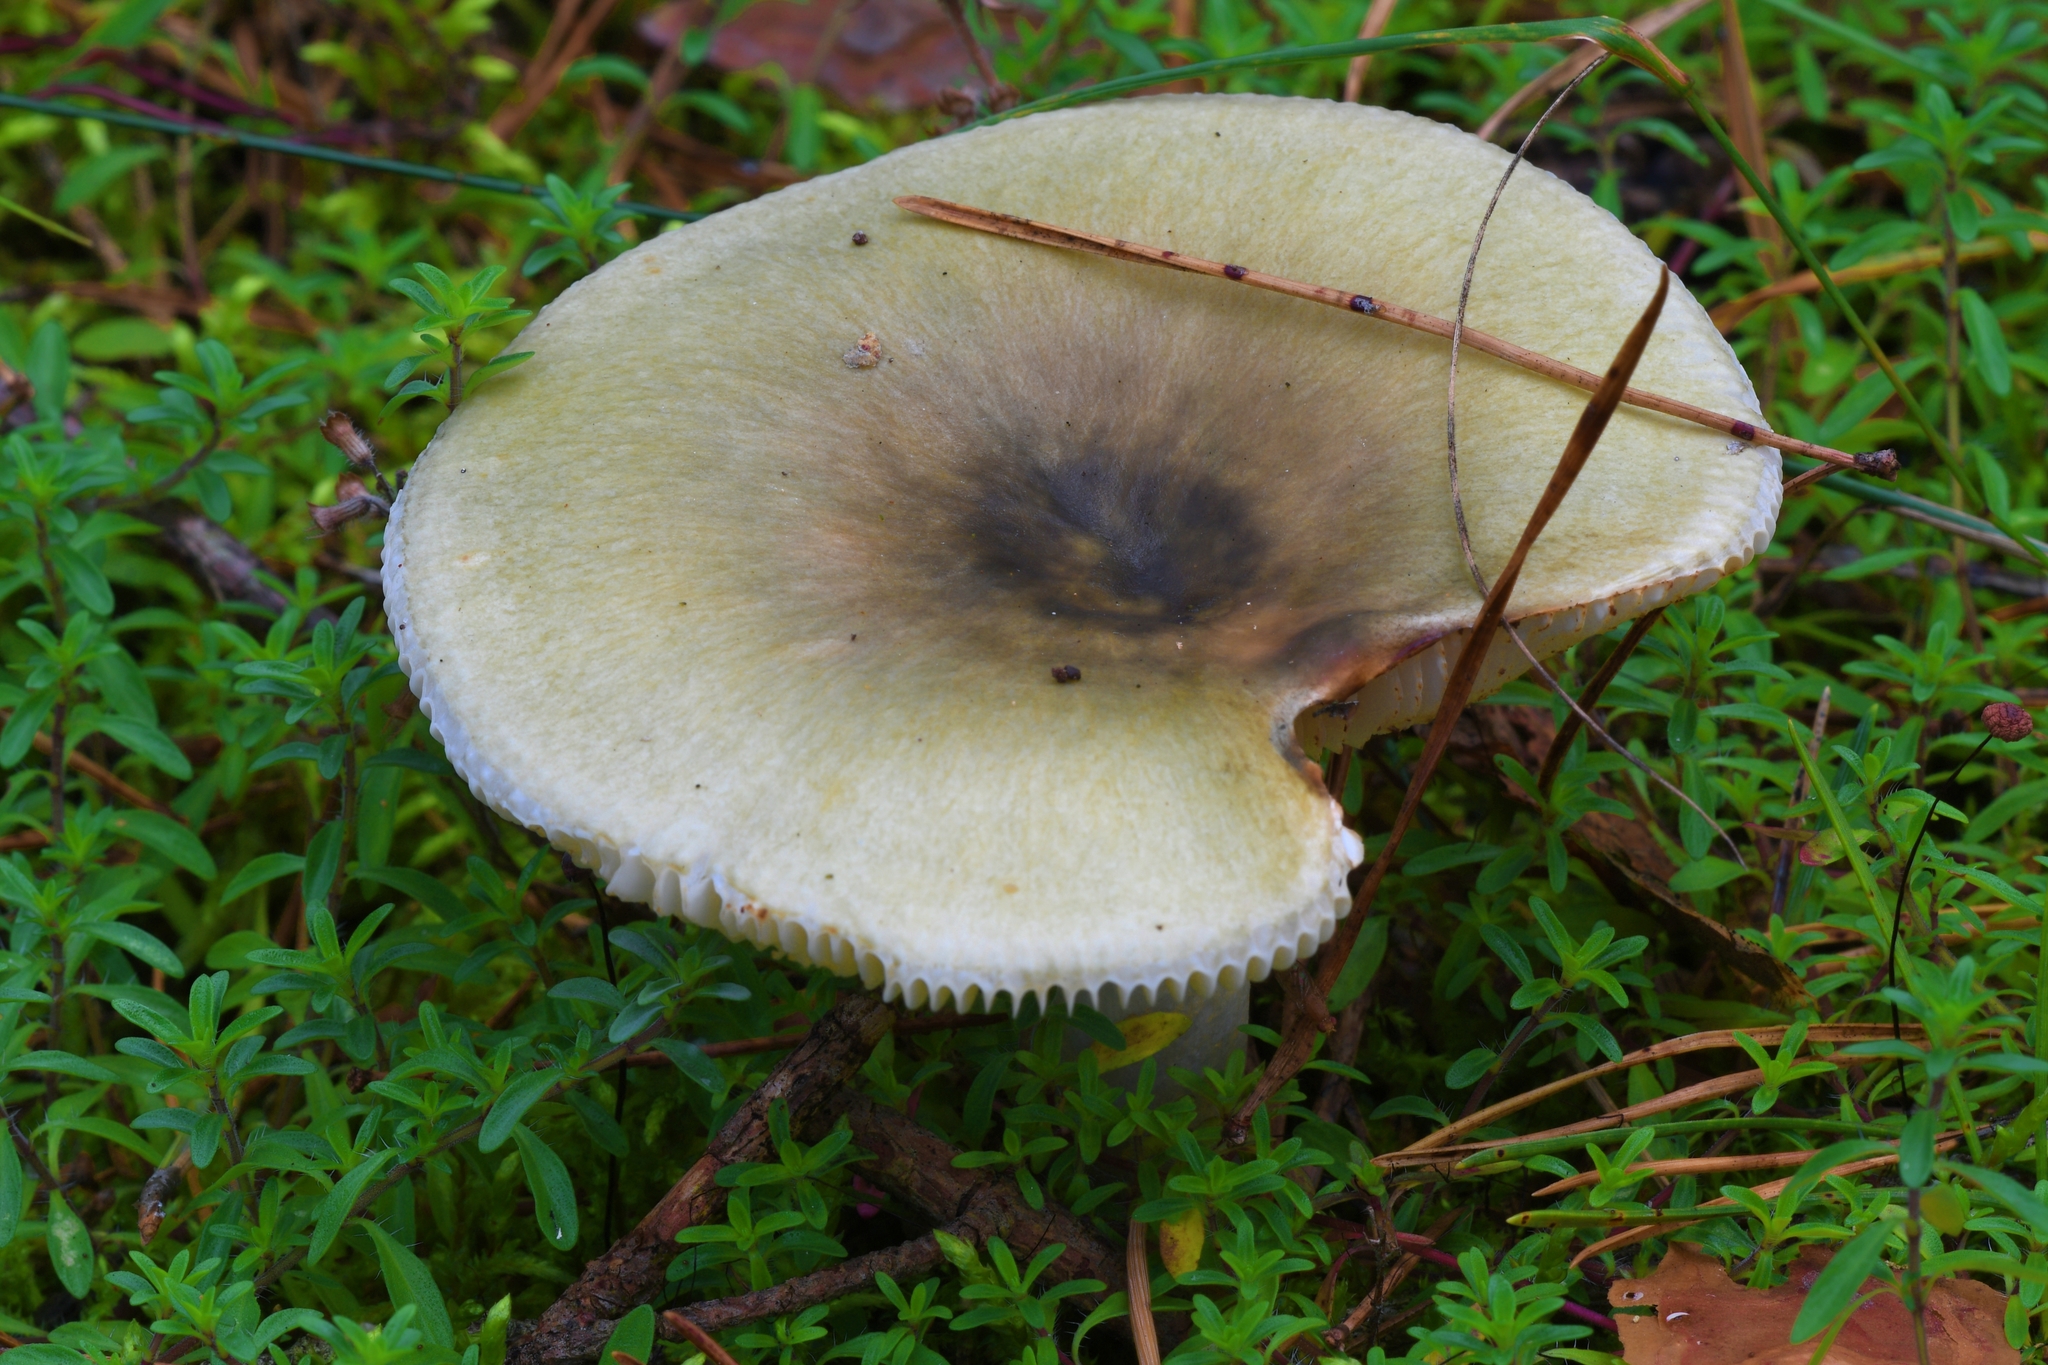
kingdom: Fungi
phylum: Basidiomycota
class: Agaricomycetes
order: Russulales
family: Russulaceae
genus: Russula
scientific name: Russula
